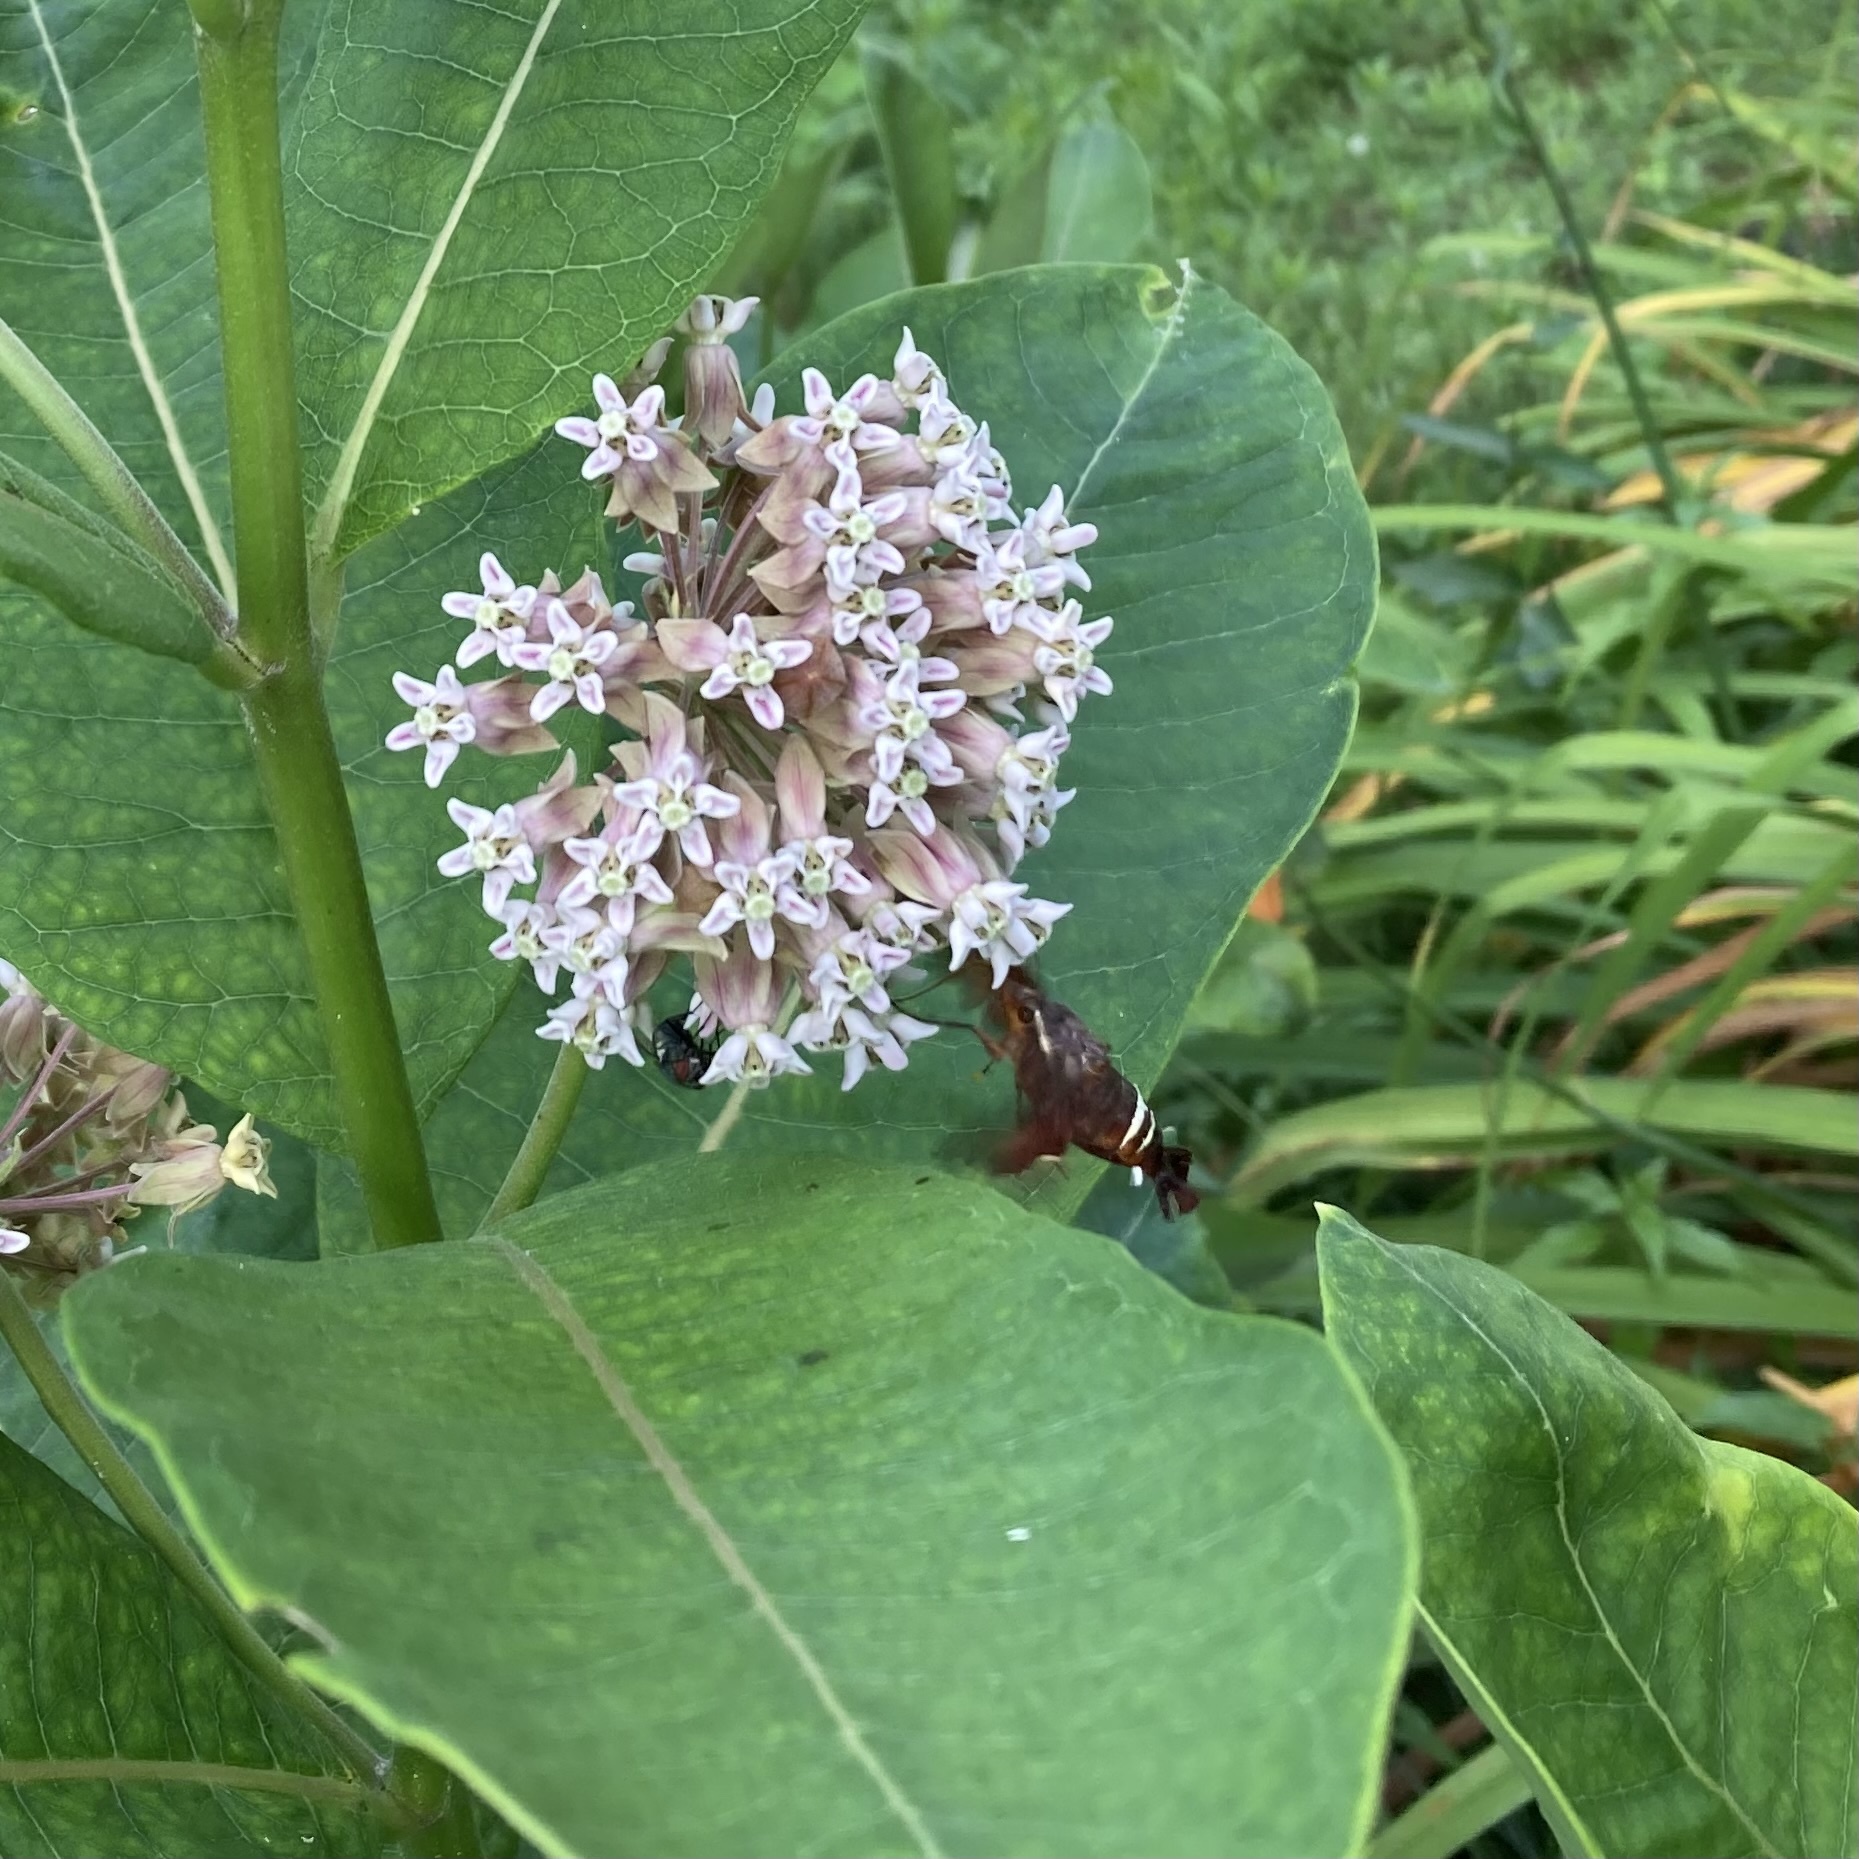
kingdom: Animalia
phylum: Arthropoda
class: Insecta
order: Lepidoptera
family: Sphingidae
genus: Amphion
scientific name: Amphion floridensis
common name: Nessus sphinx
